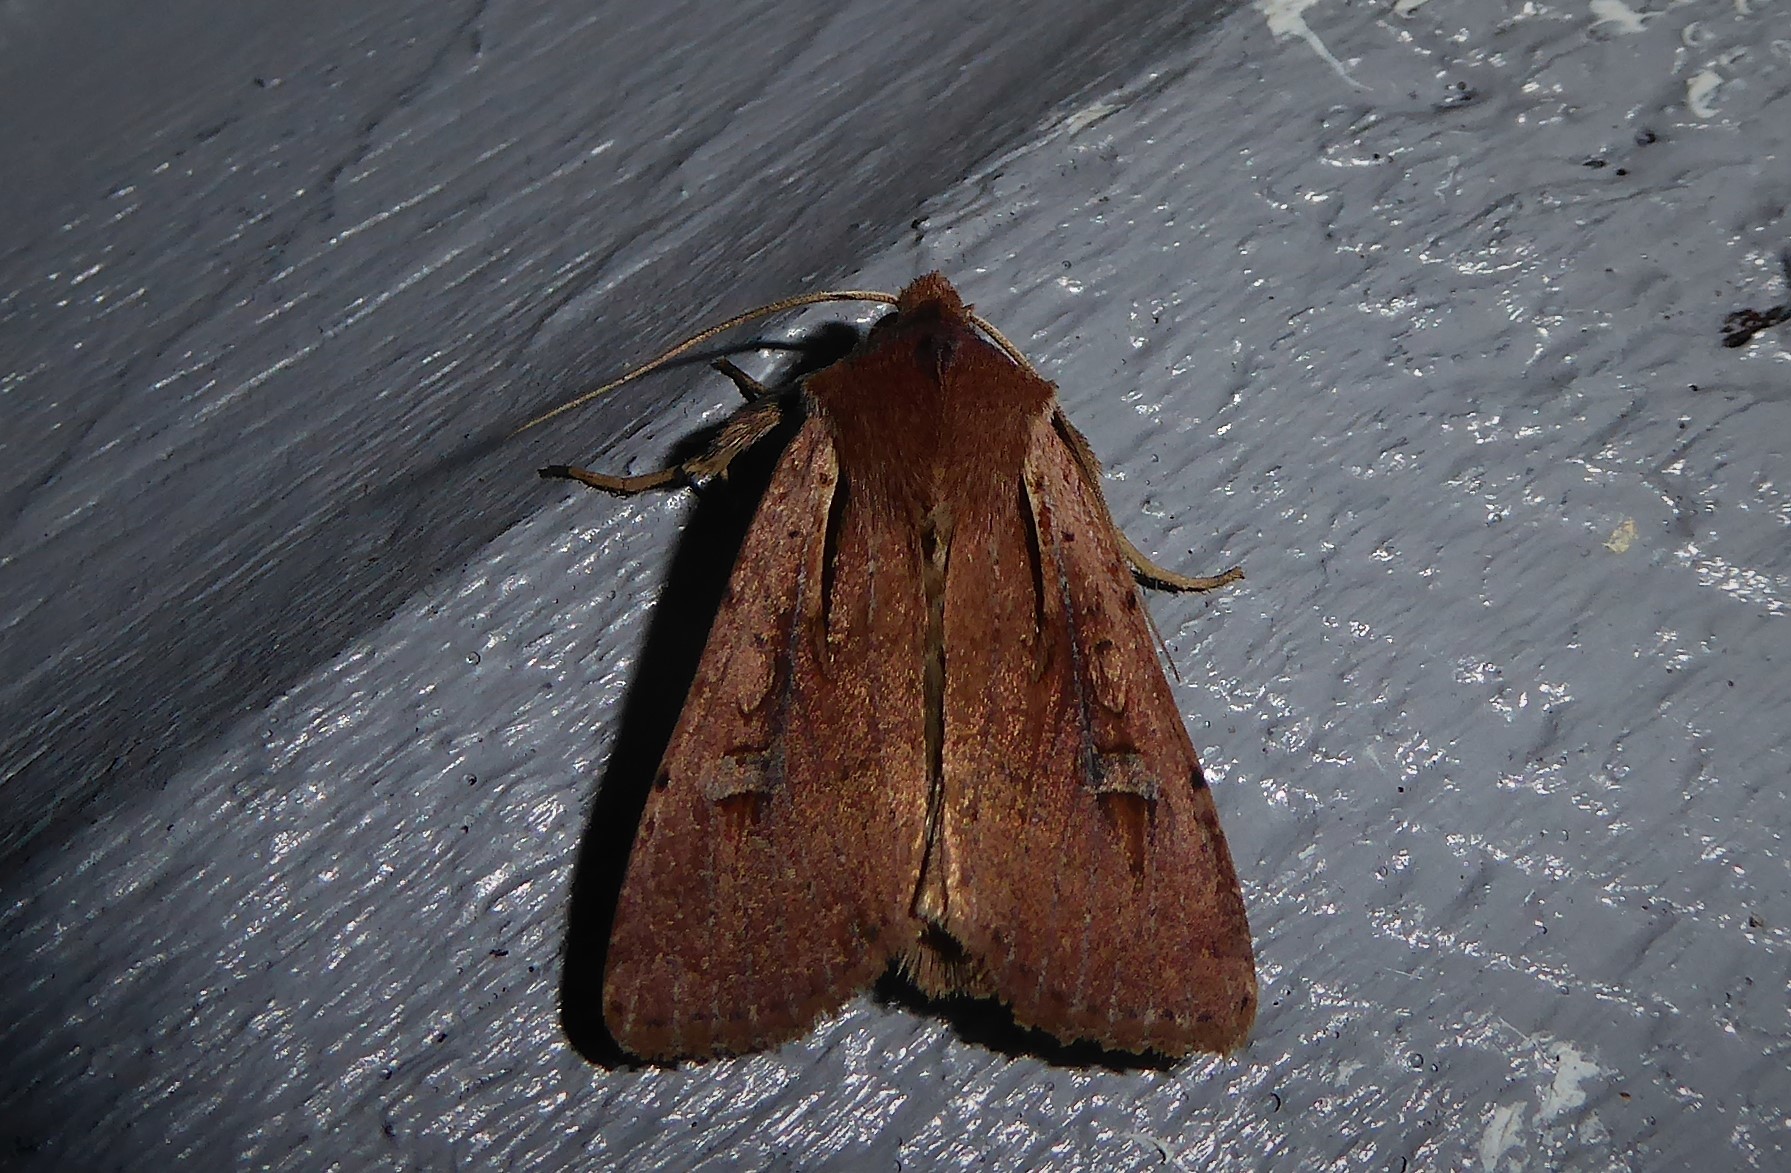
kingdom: Animalia
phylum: Arthropoda
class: Insecta
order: Lepidoptera
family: Noctuidae
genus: Ichneutica
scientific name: Ichneutica atristriga
